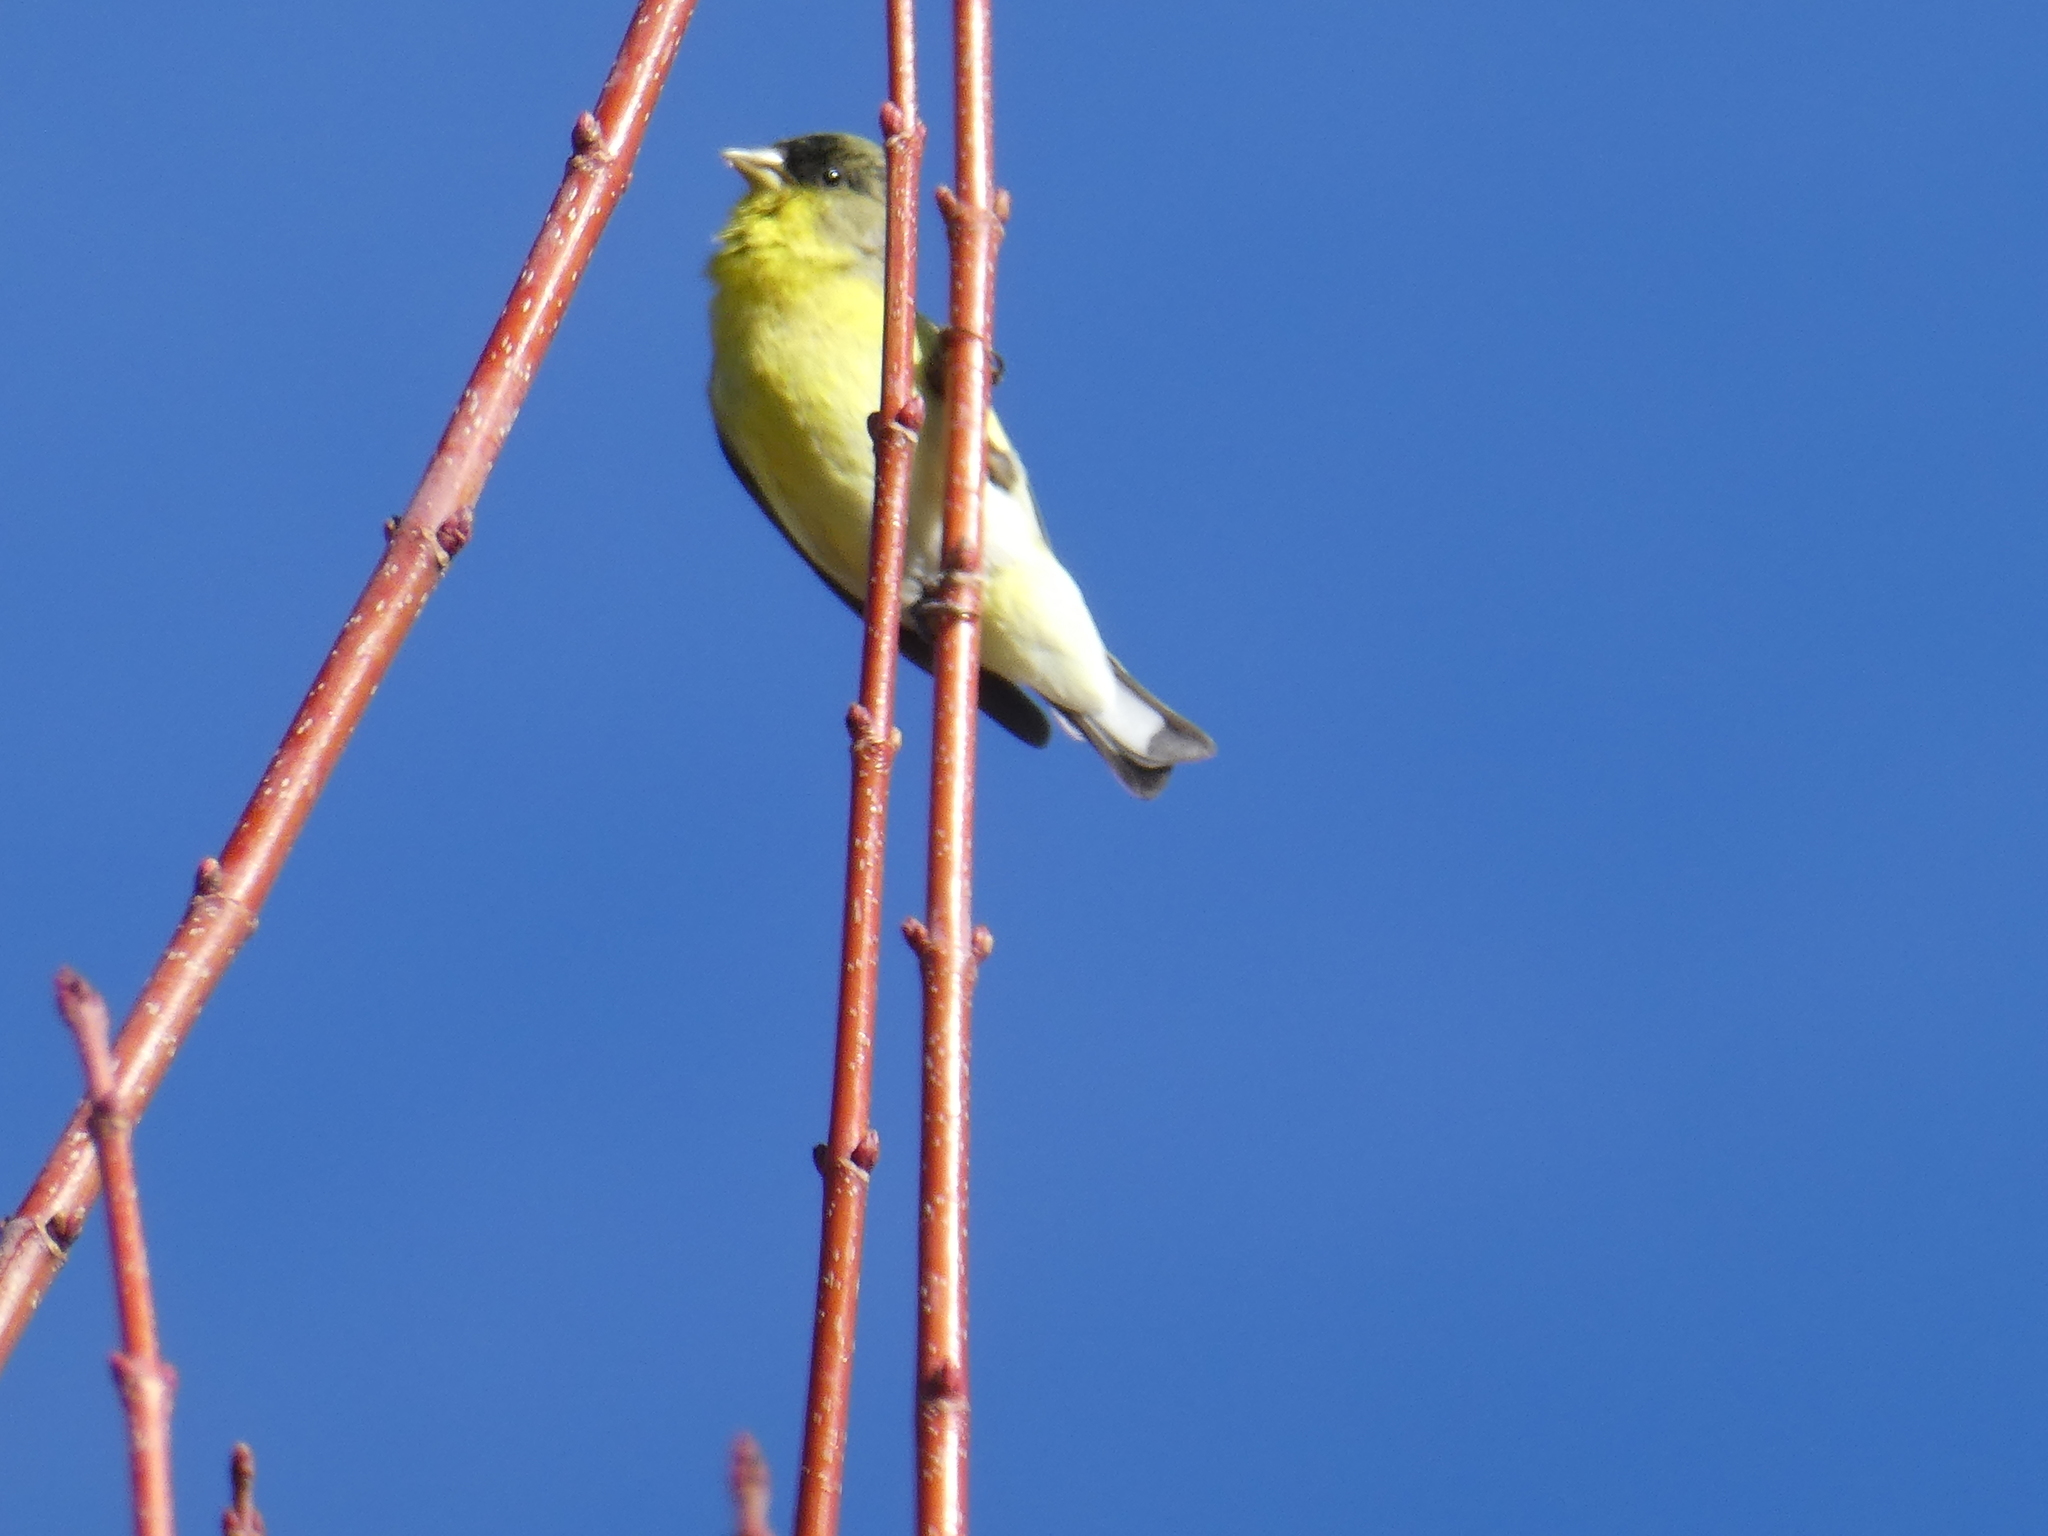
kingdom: Animalia
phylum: Chordata
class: Aves
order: Passeriformes
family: Fringillidae
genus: Spinus
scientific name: Spinus psaltria
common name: Lesser goldfinch
